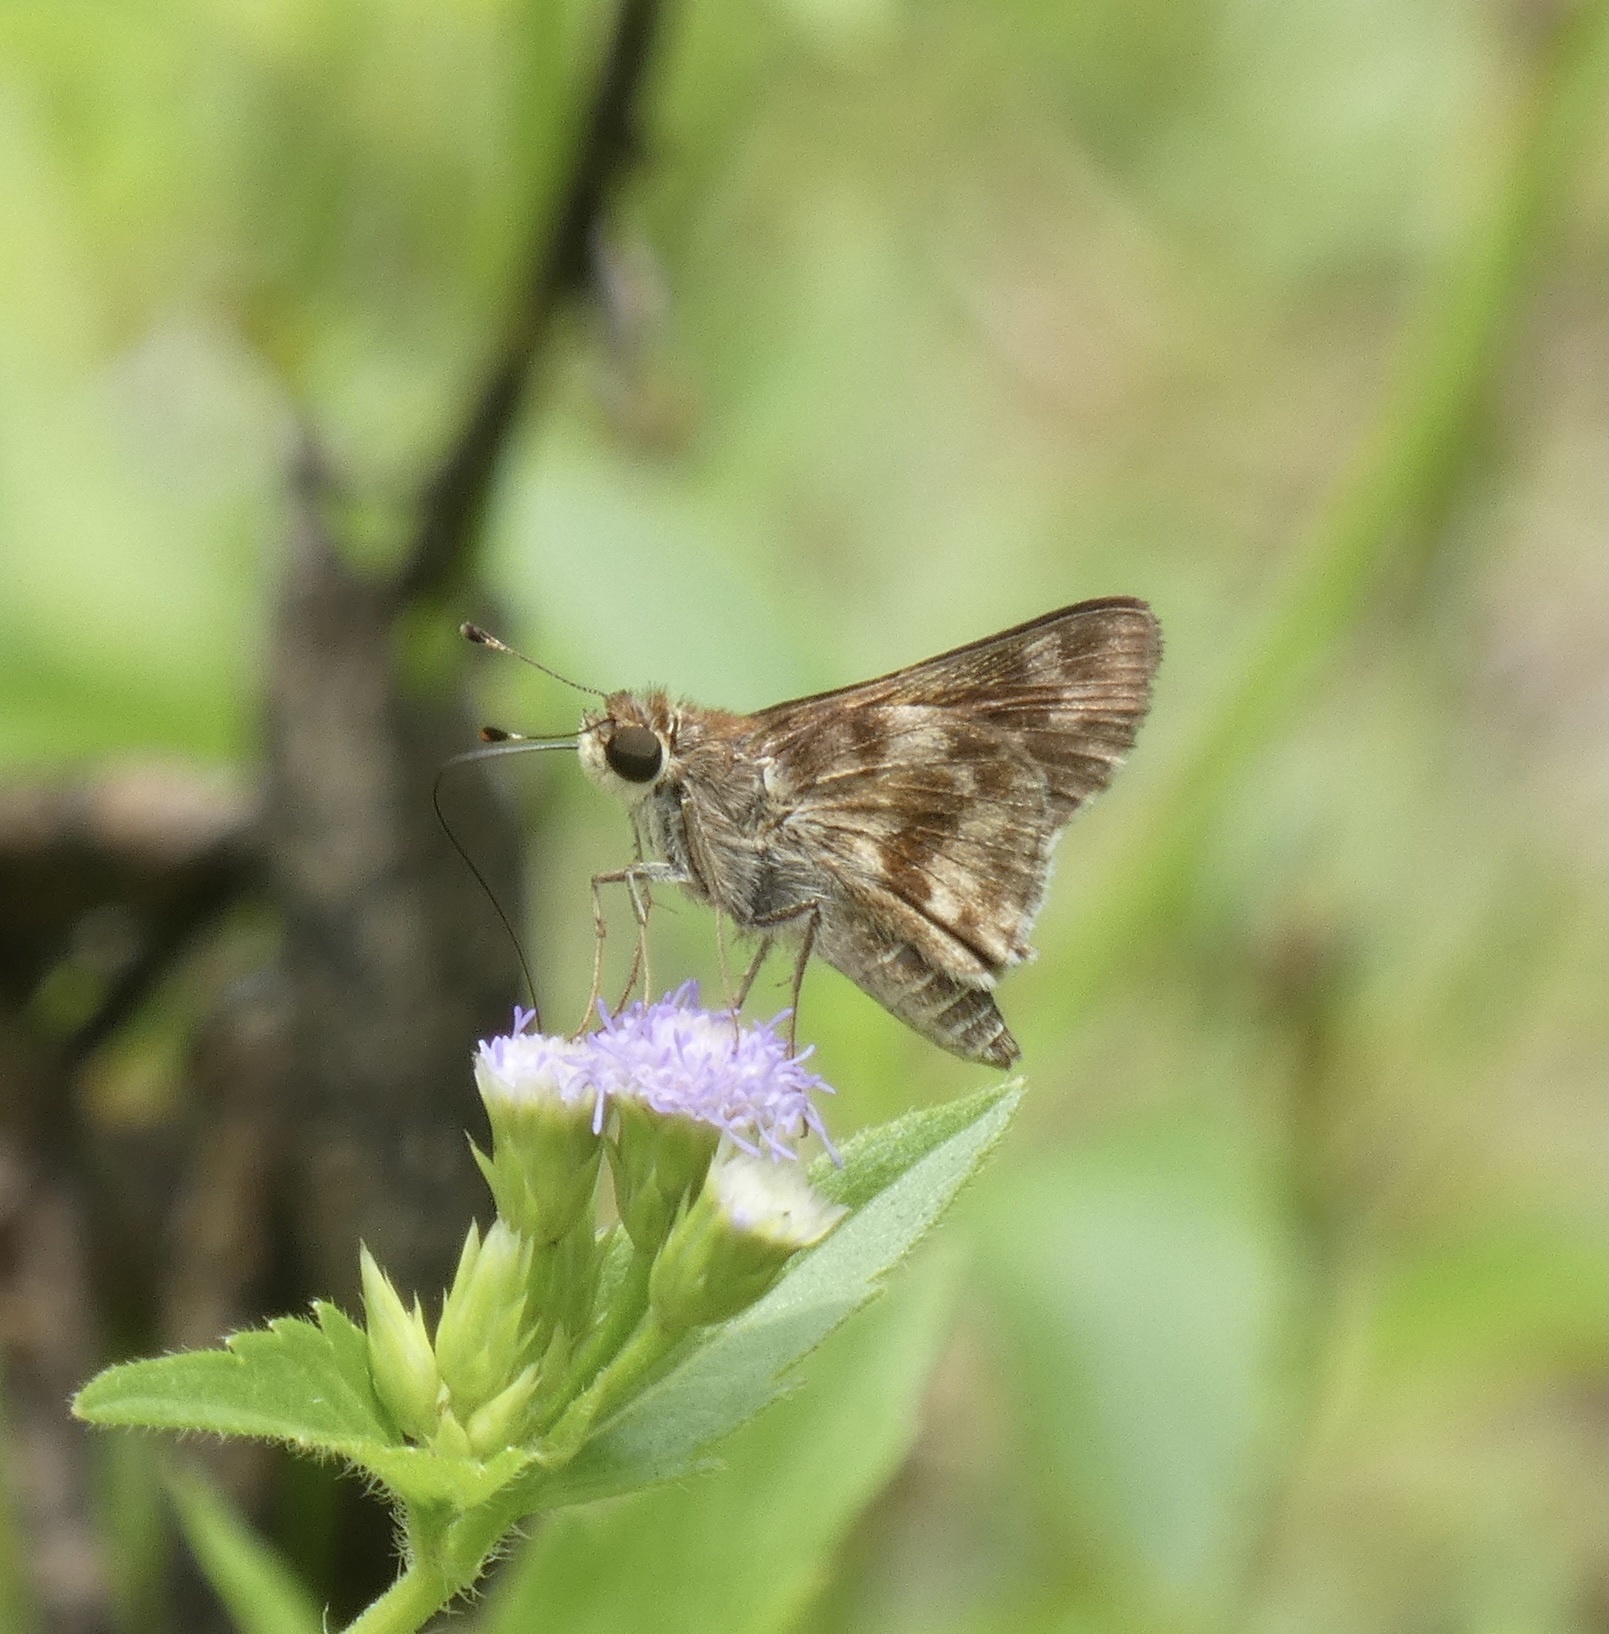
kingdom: Animalia
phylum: Arthropoda
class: Insecta
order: Lepidoptera
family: Hesperiidae
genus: Pompeius
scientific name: Pompeius pompeius
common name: Pompeius skipper
